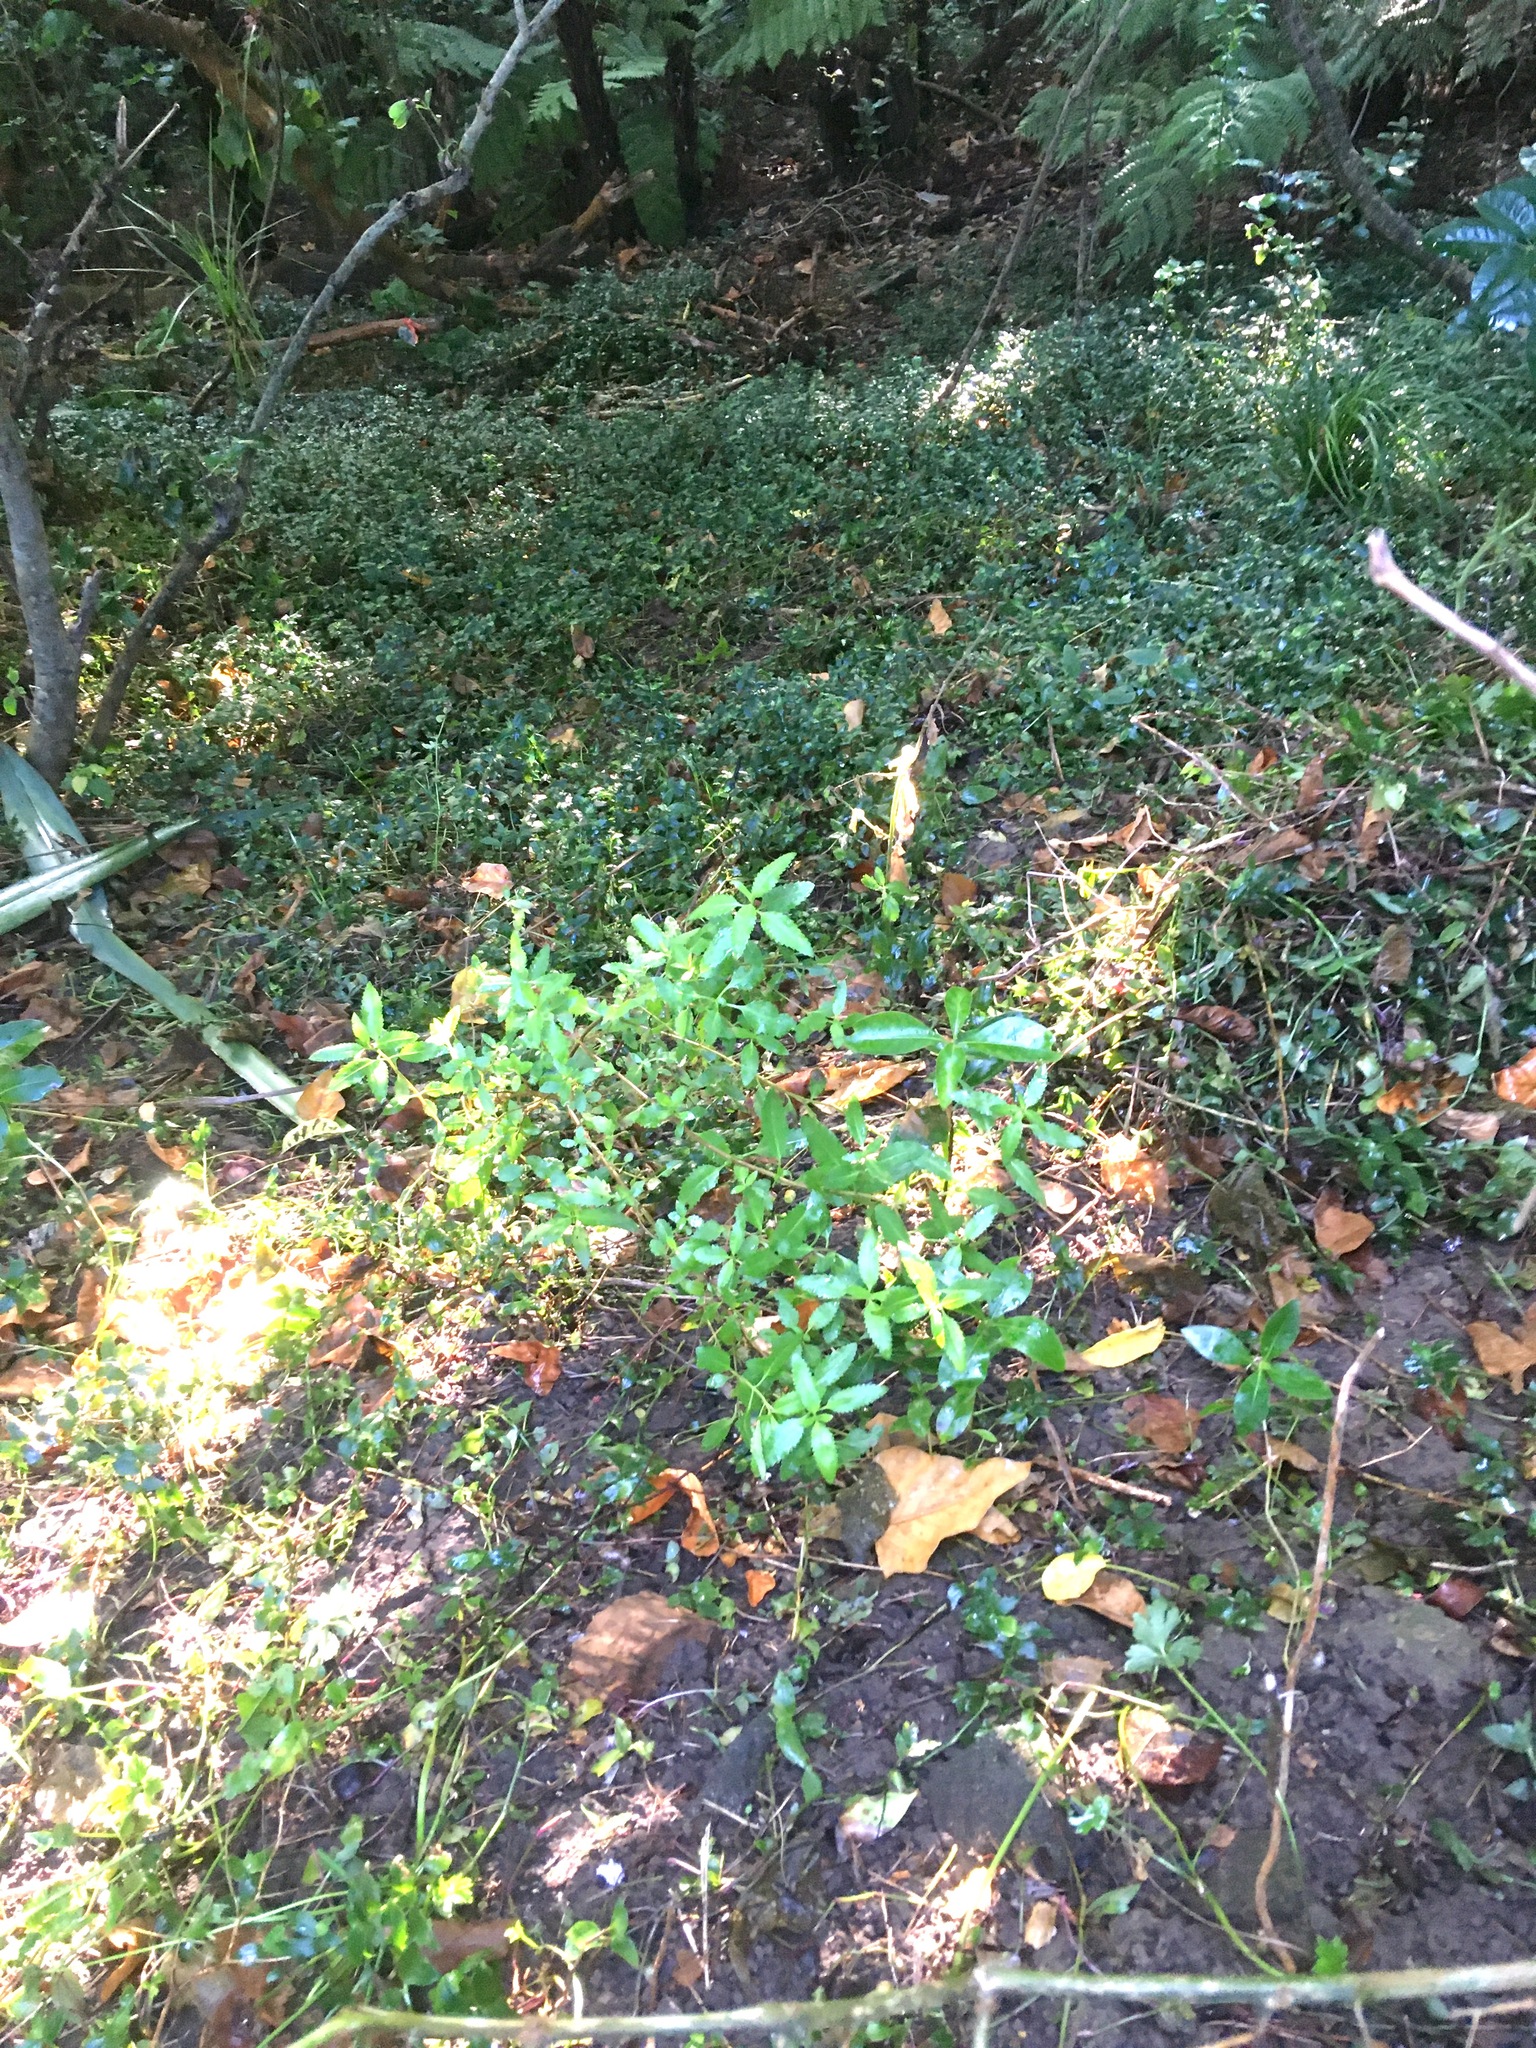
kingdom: Plantae
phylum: Tracheophyta
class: Magnoliopsida
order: Saxifragales
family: Haloragaceae
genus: Haloragis
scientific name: Haloragis erecta
